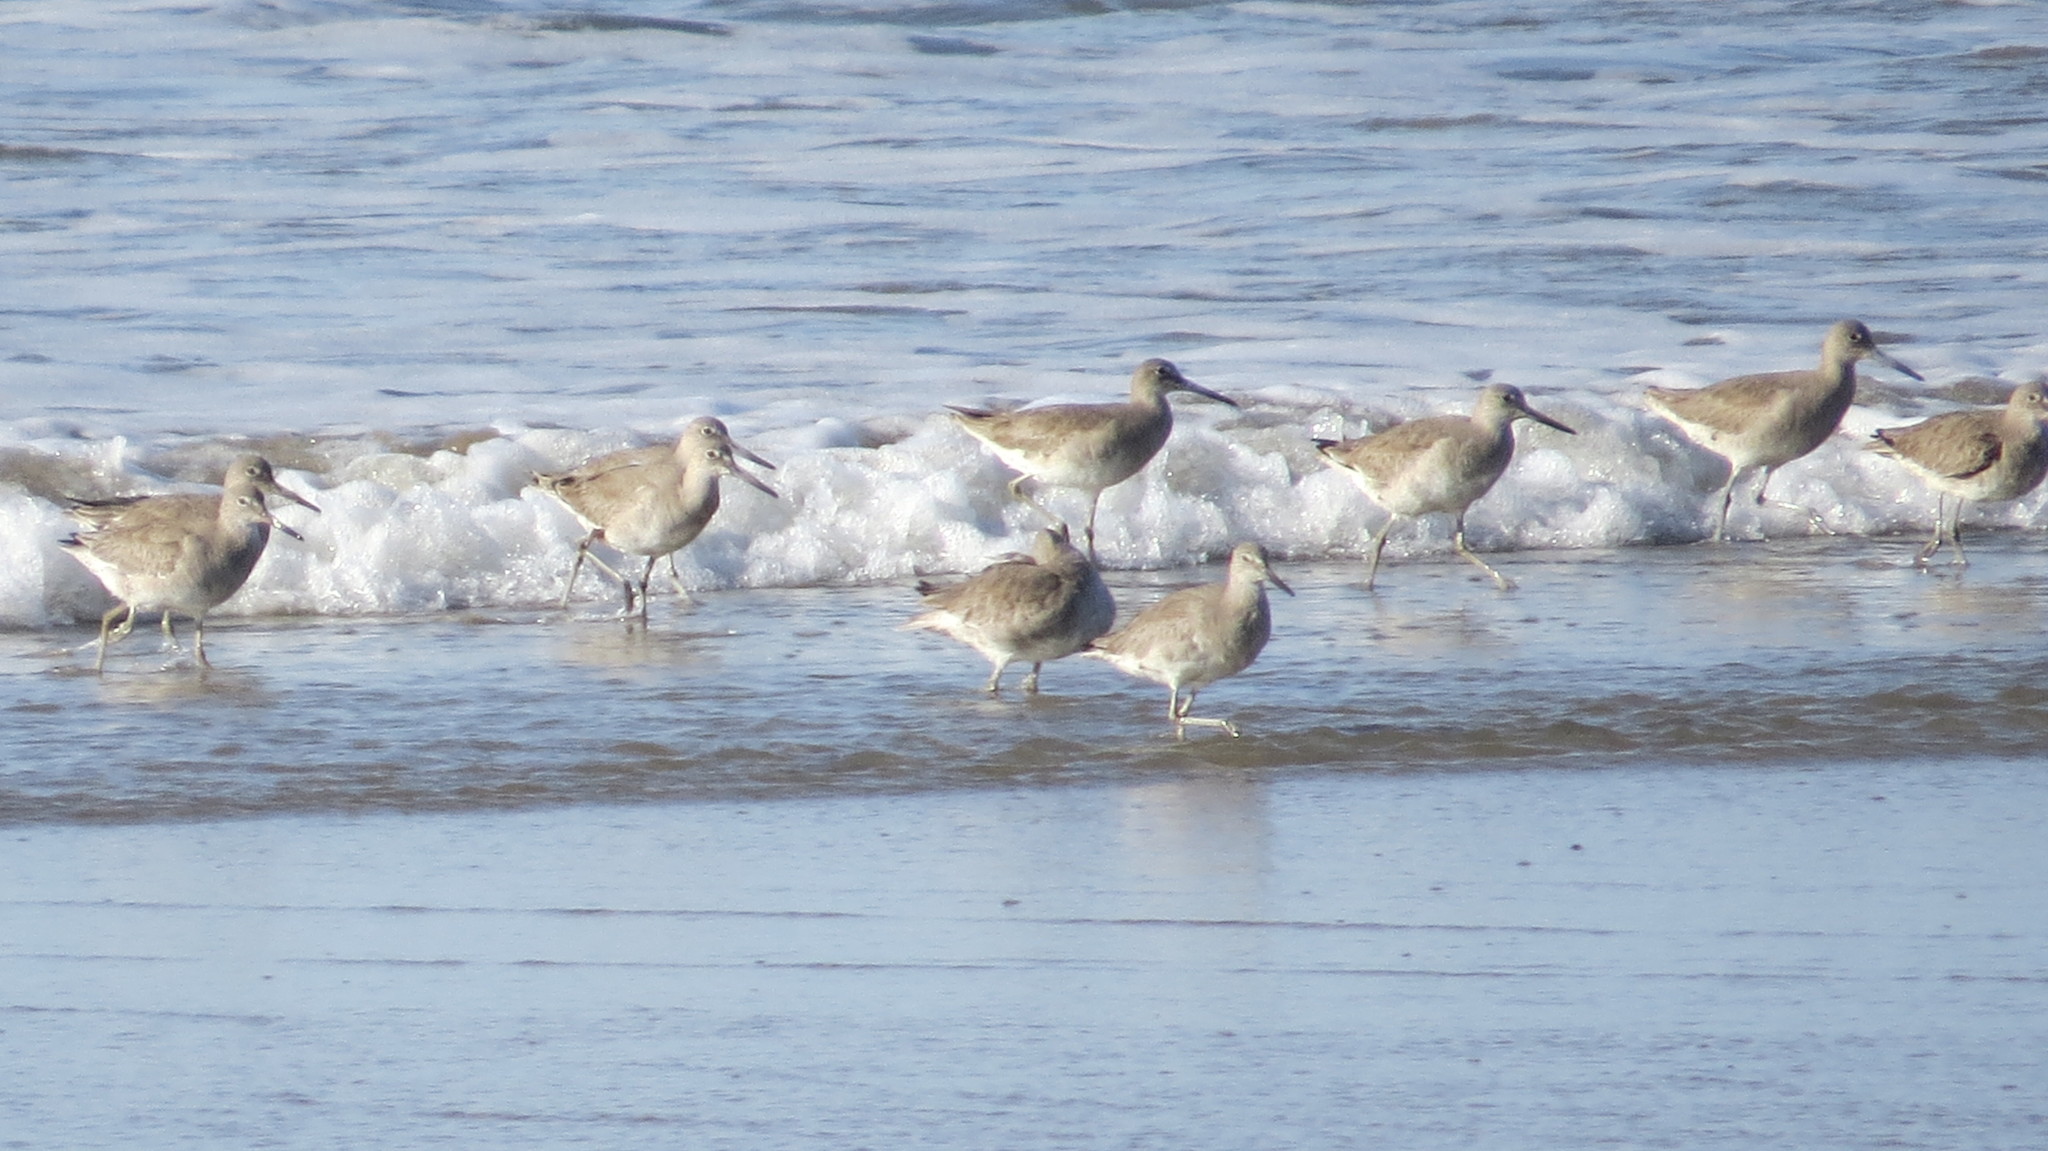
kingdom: Animalia
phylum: Chordata
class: Aves
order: Charadriiformes
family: Scolopacidae
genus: Tringa
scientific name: Tringa semipalmata
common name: Willet
